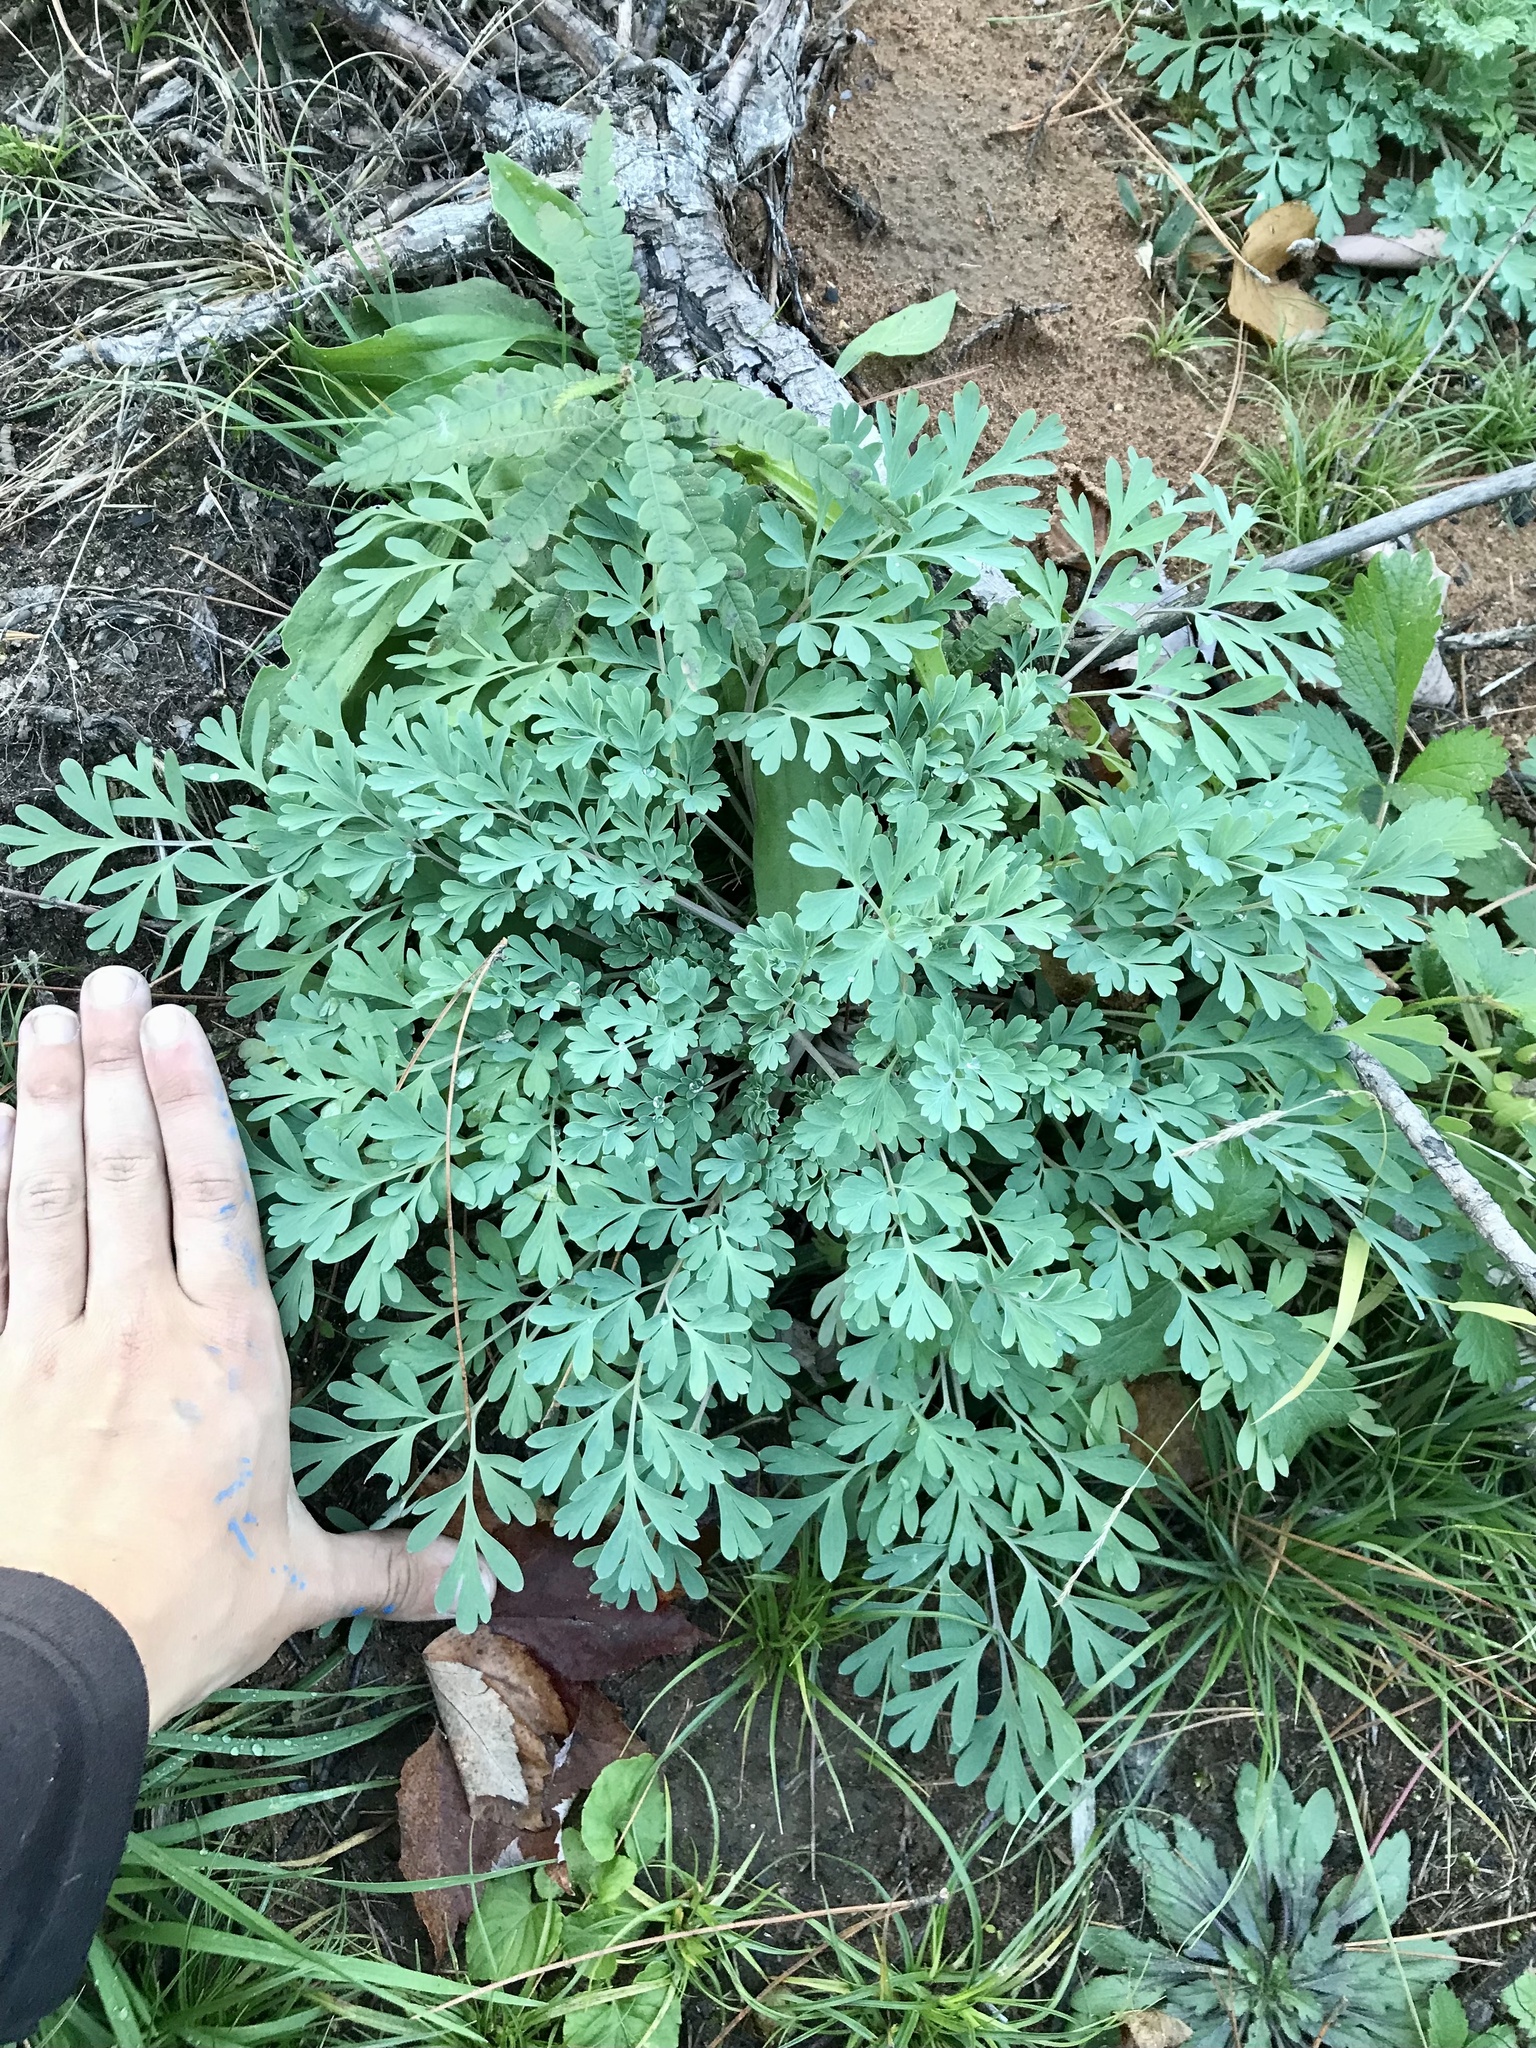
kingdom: Plantae
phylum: Tracheophyta
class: Magnoliopsida
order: Ranunculales
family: Papaveraceae
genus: Capnoides
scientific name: Capnoides sempervirens
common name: Rock harlequin
